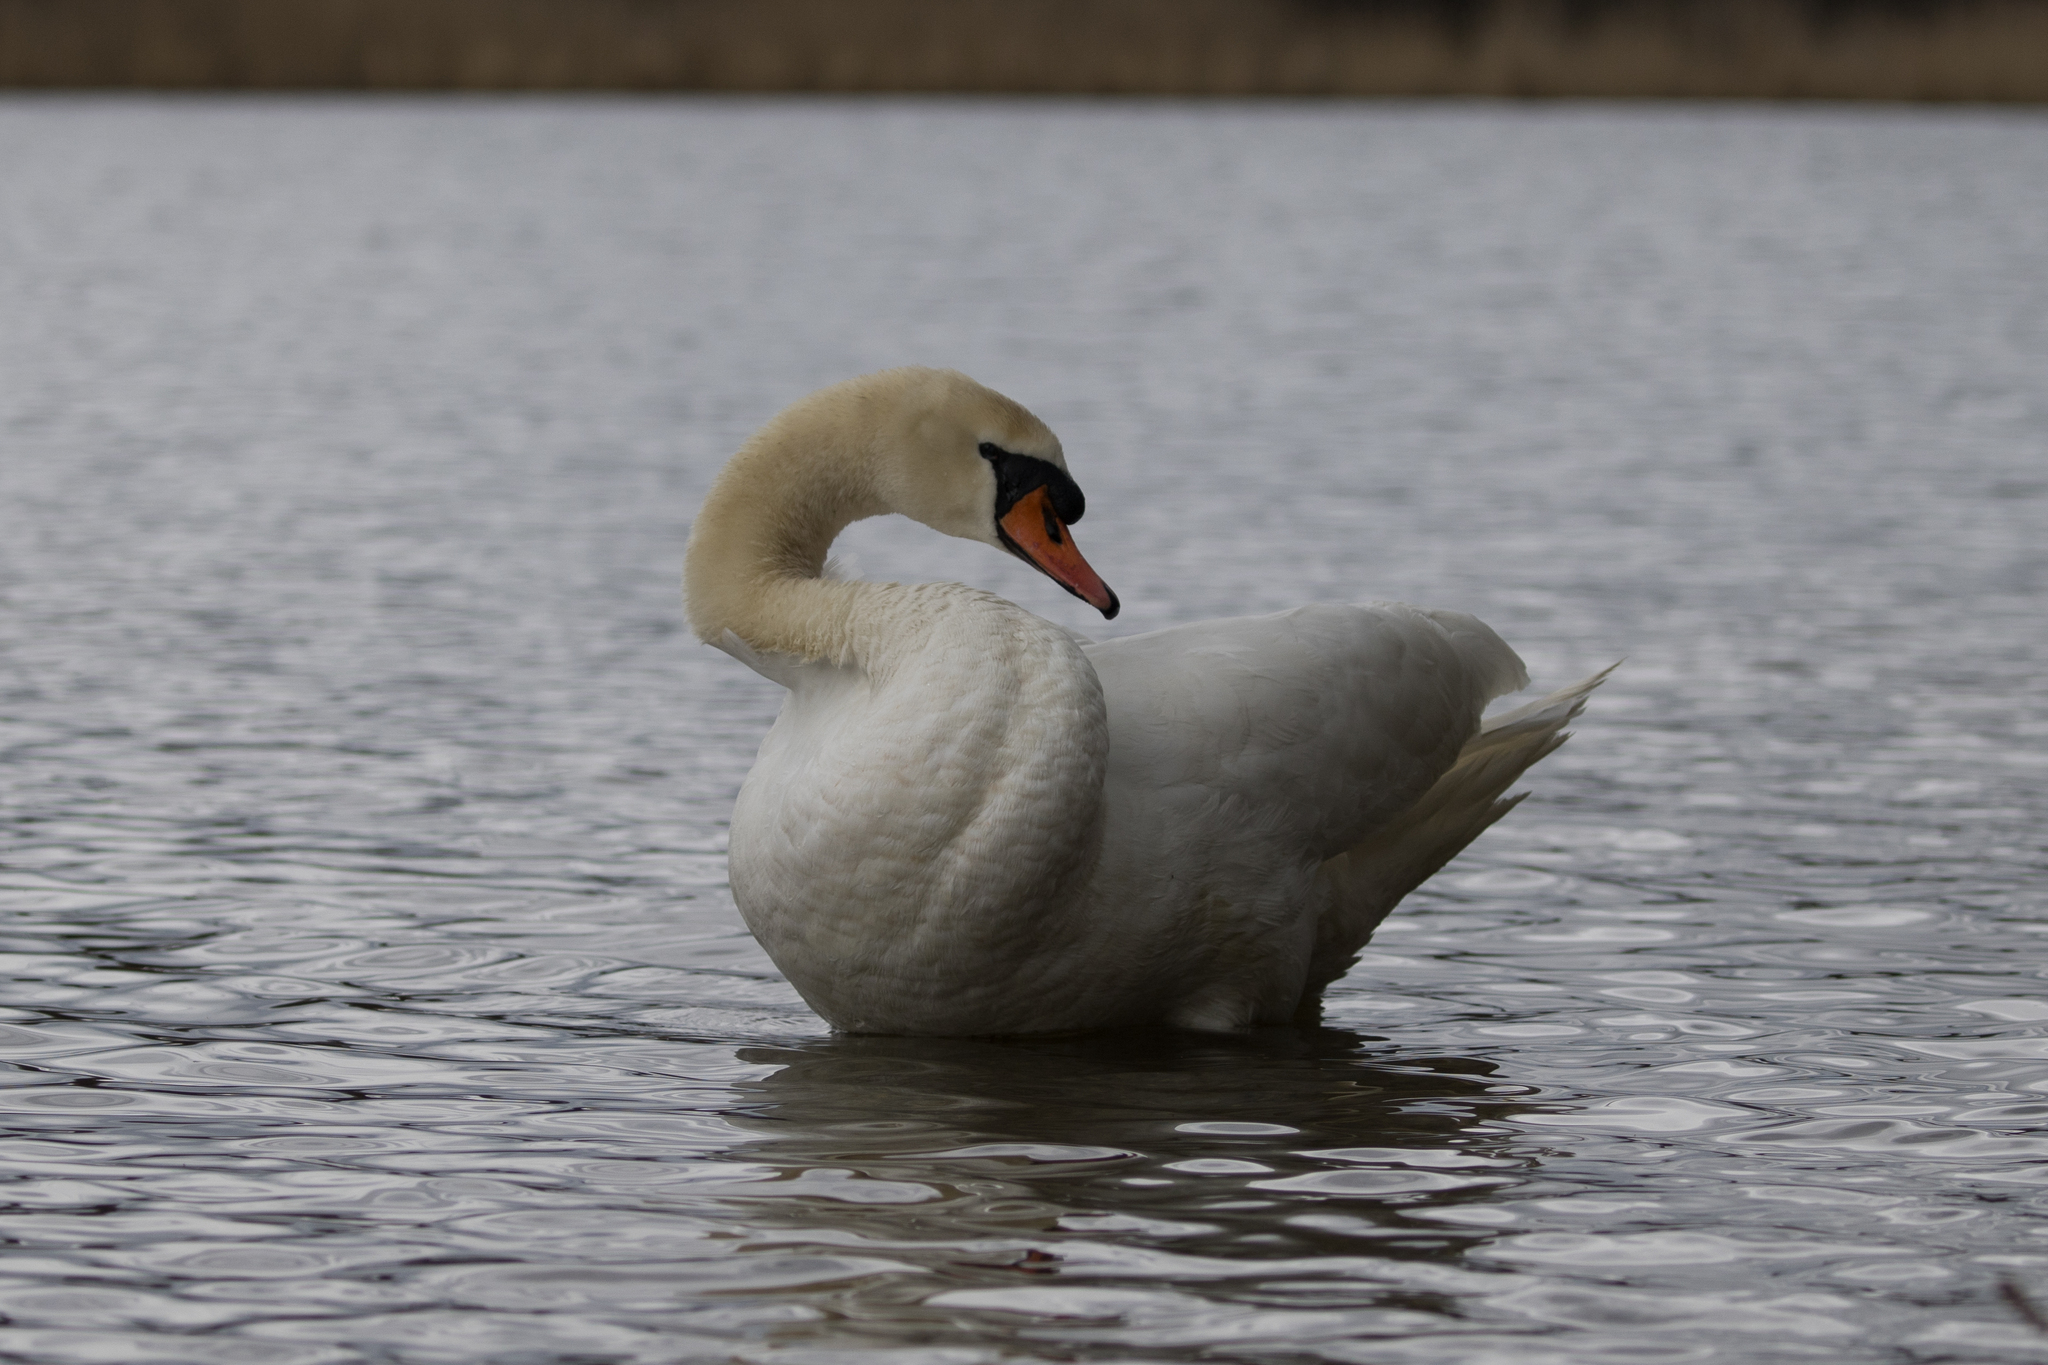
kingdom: Animalia
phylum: Chordata
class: Aves
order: Anseriformes
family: Anatidae
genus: Cygnus
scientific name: Cygnus olor
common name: Mute swan
